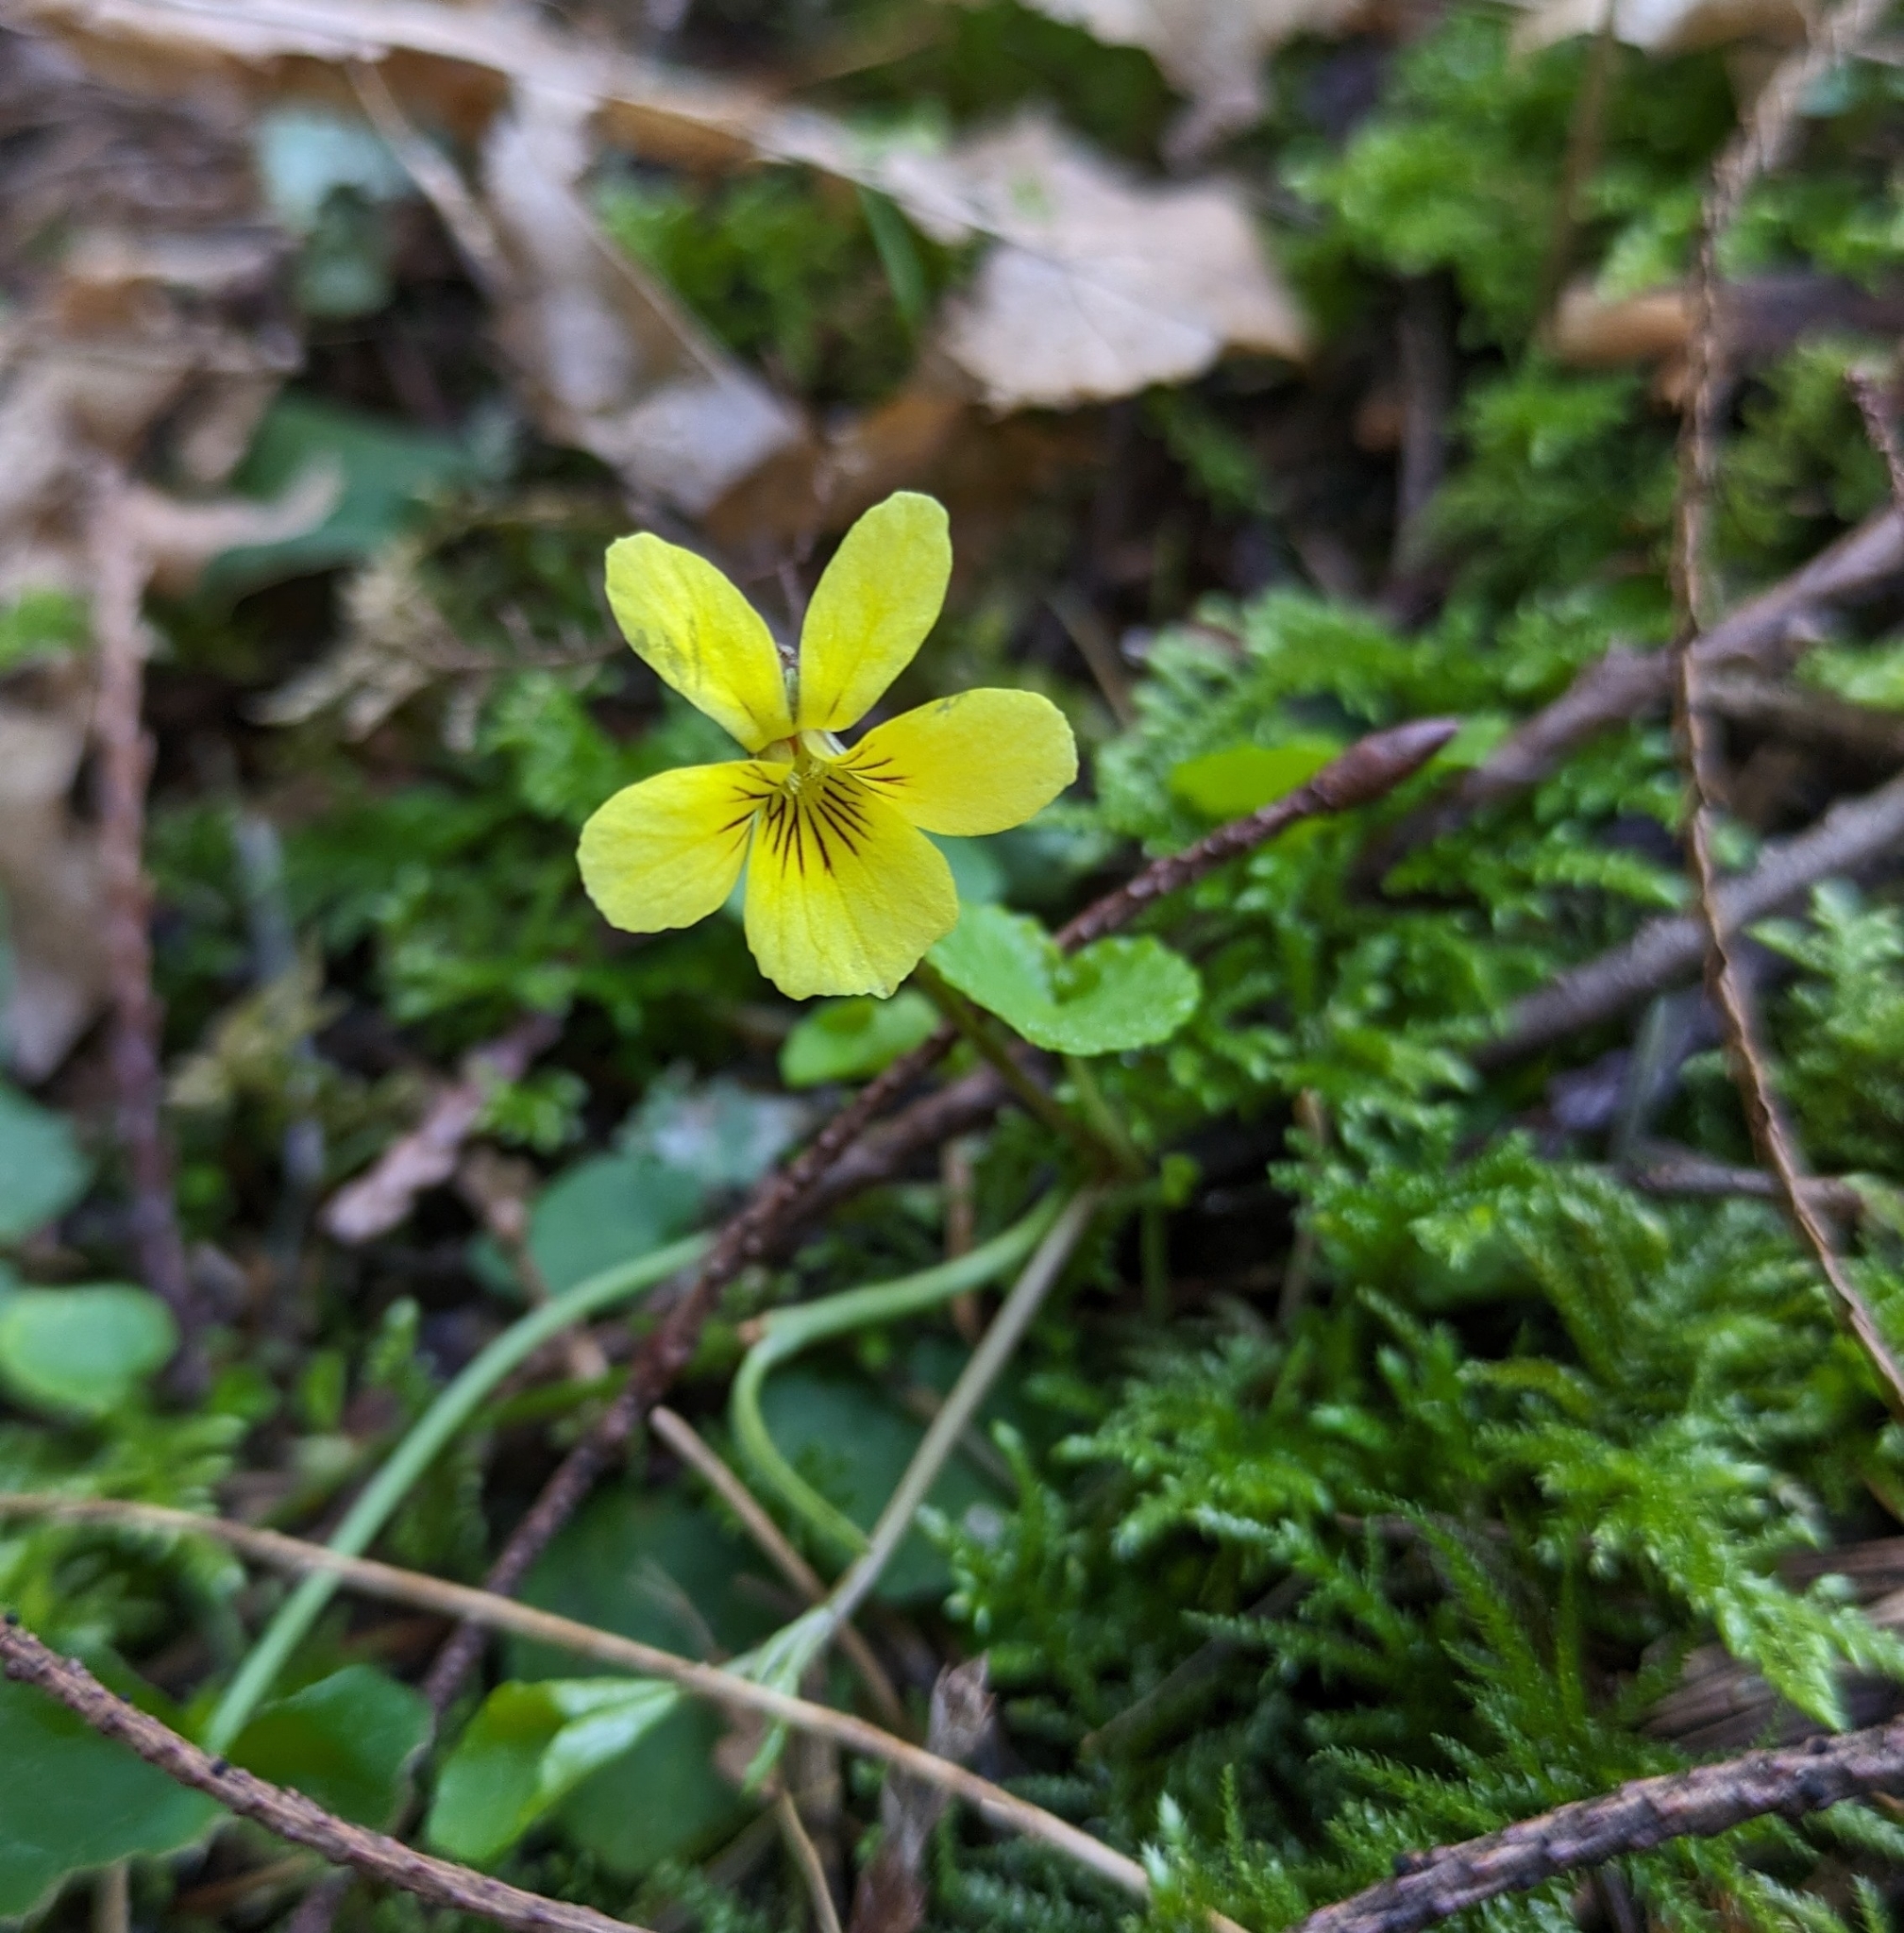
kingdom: Plantae
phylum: Tracheophyta
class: Magnoliopsida
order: Malpighiales
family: Violaceae
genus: Viola
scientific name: Viola sempervirens
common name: Evergreen violet
